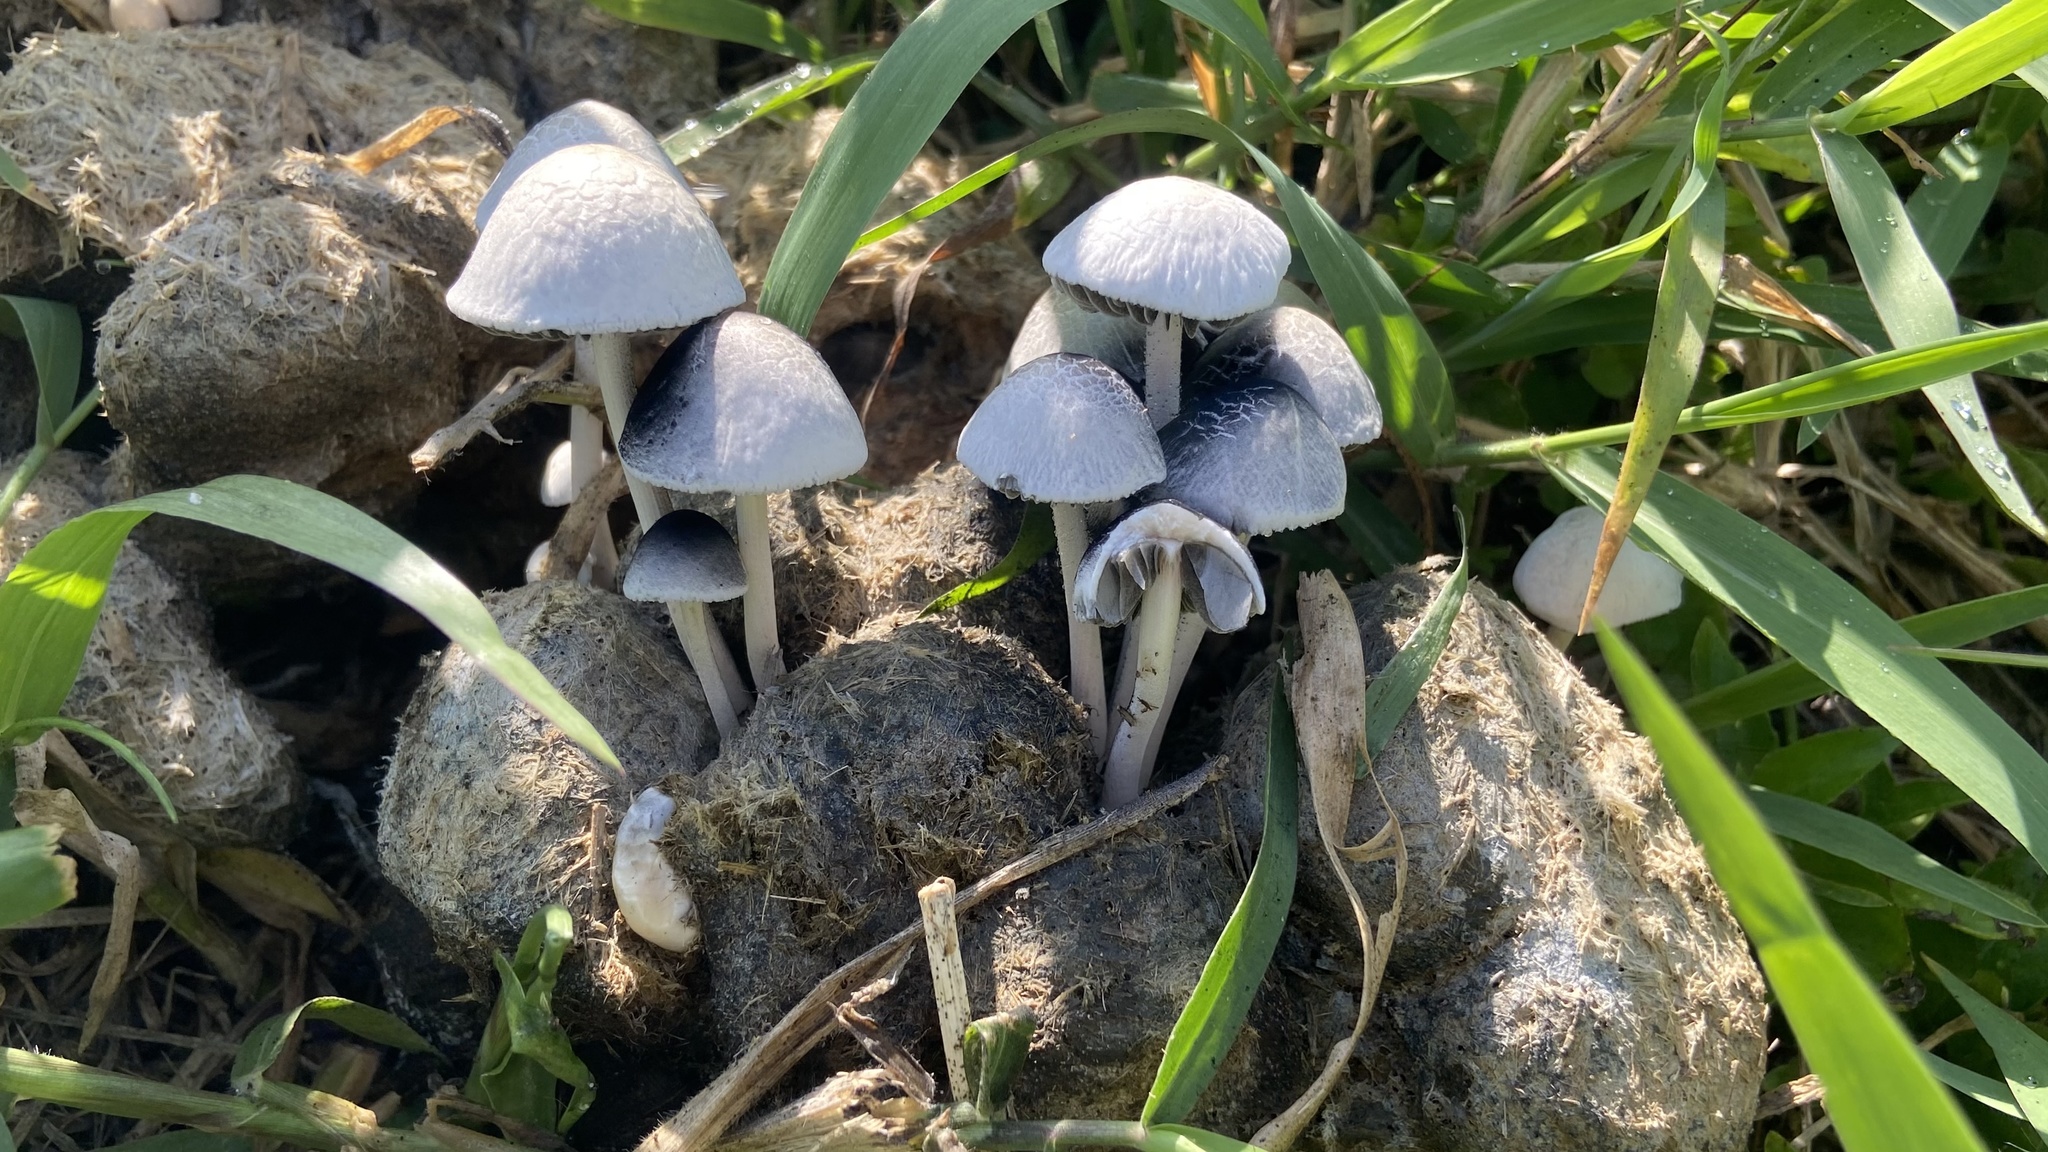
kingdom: Fungi
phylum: Basidiomycota
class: Agaricomycetes
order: Agaricales
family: Bolbitiaceae
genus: Panaeolus
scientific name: Panaeolus antillarum
